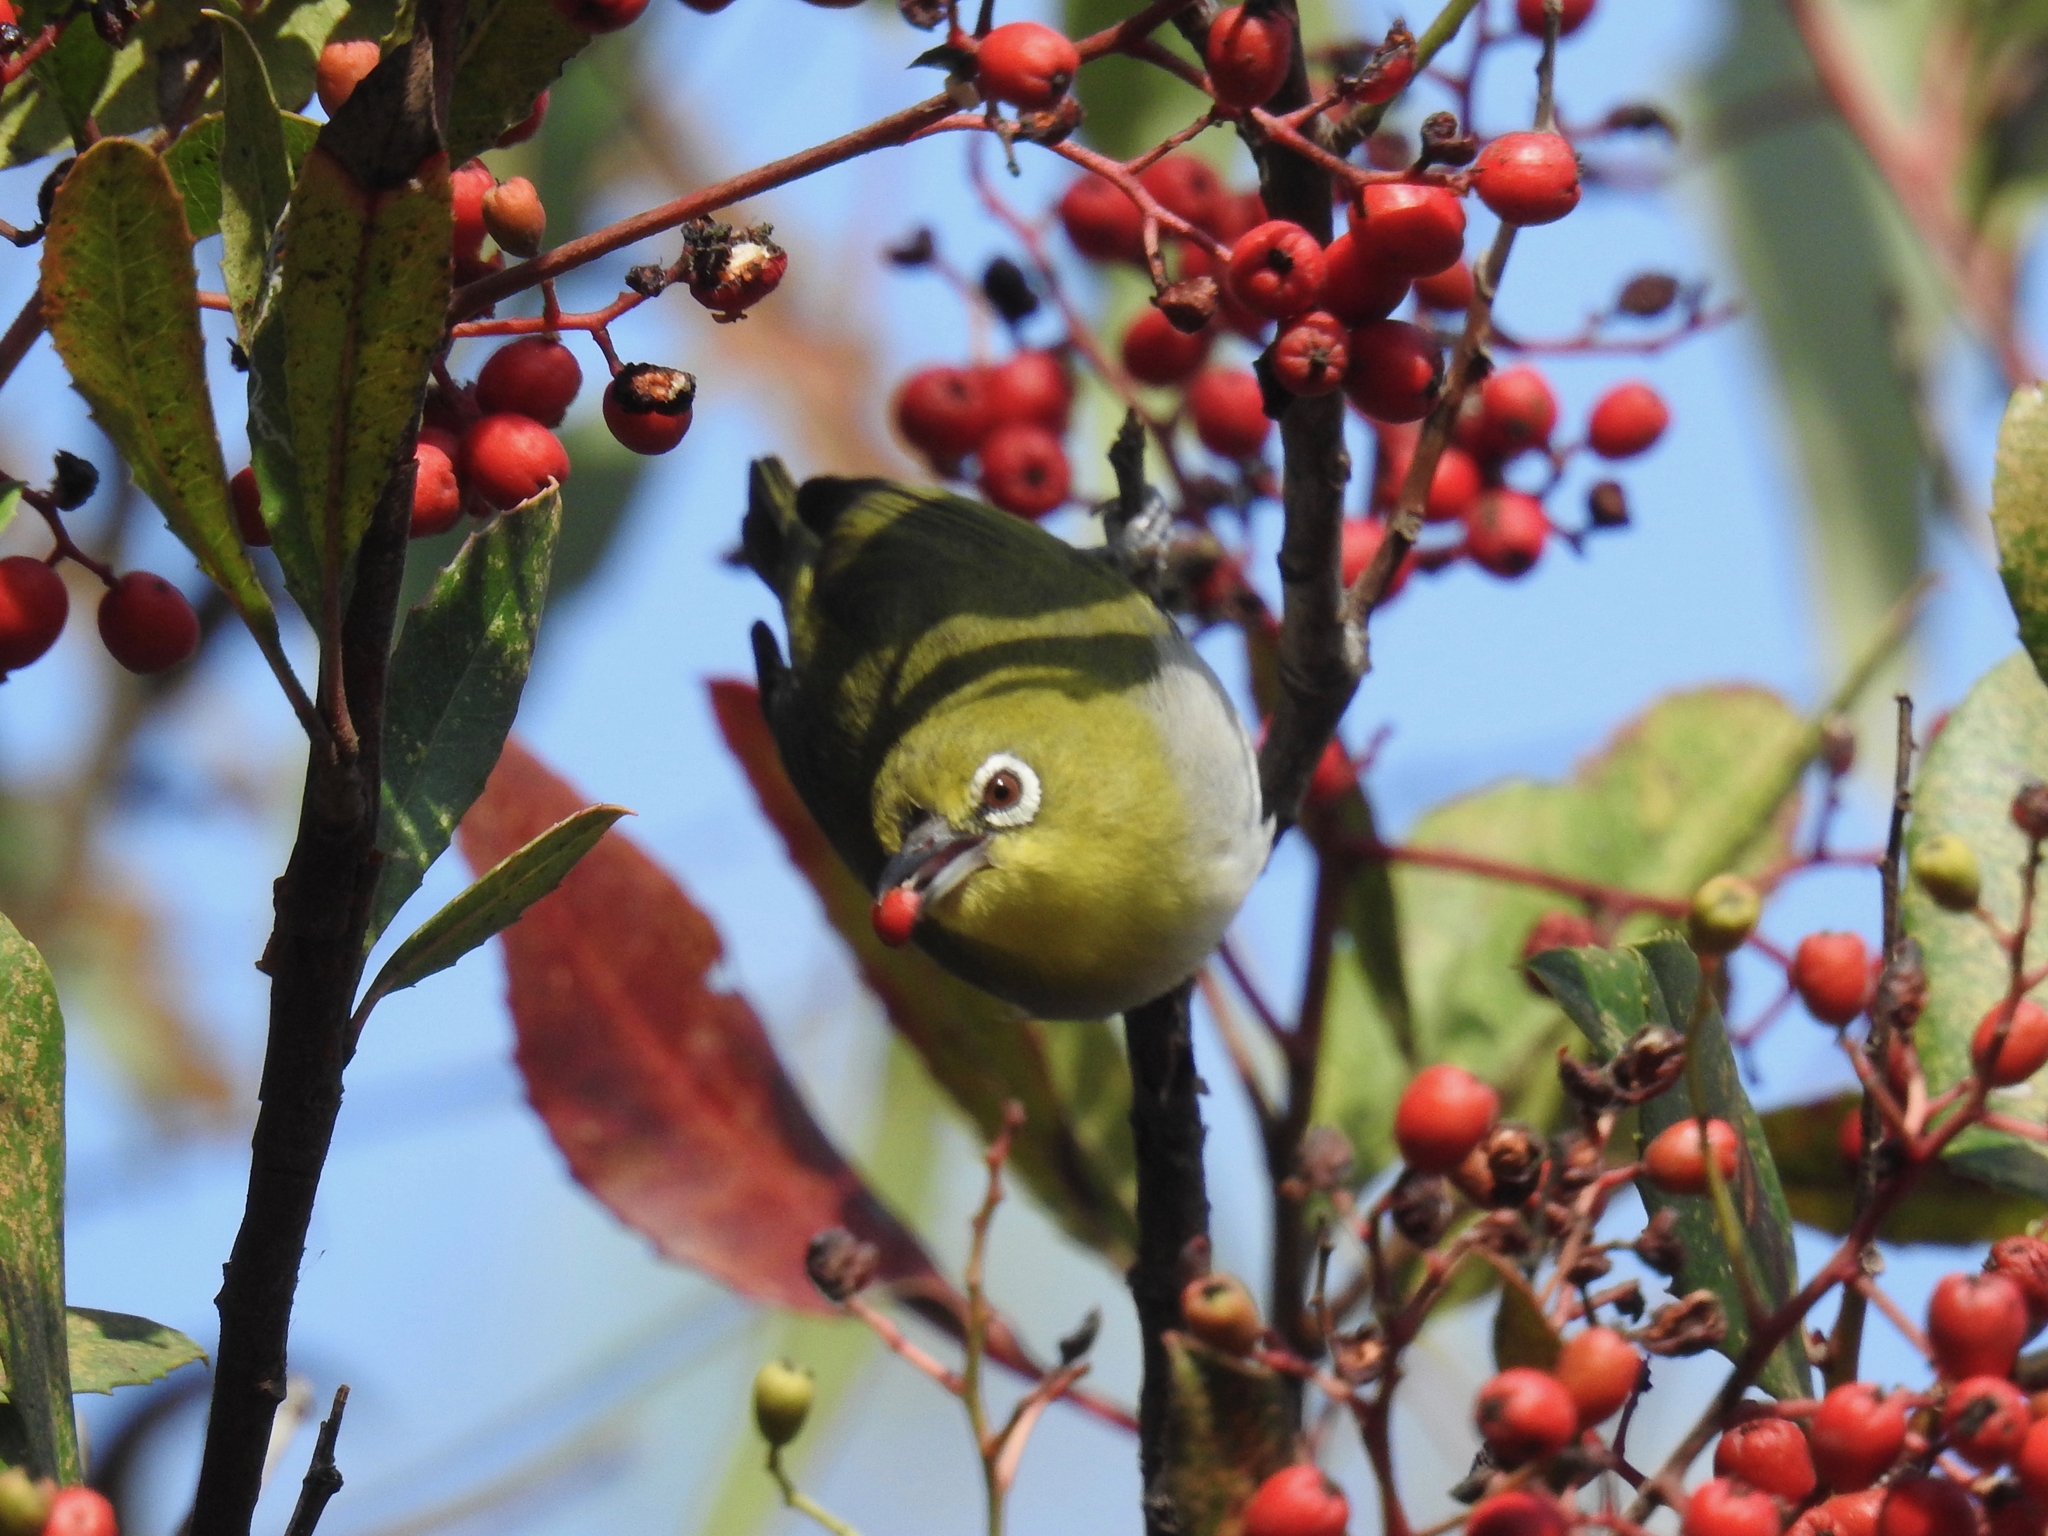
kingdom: Animalia
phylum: Chordata
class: Aves
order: Passeriformes
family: Zosteropidae
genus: Zosterops
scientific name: Zosterops simplex
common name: Swinhoe's white-eye
